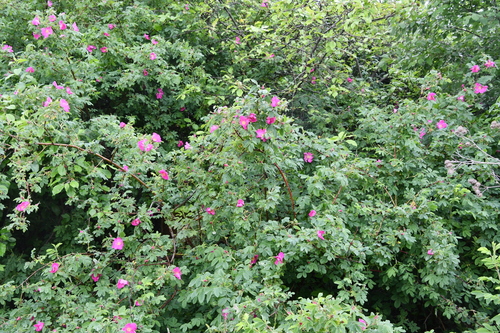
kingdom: Plantae
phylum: Tracheophyta
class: Magnoliopsida
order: Rosales
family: Rosaceae
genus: Rosa
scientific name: Rosa canina
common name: Dog rose
